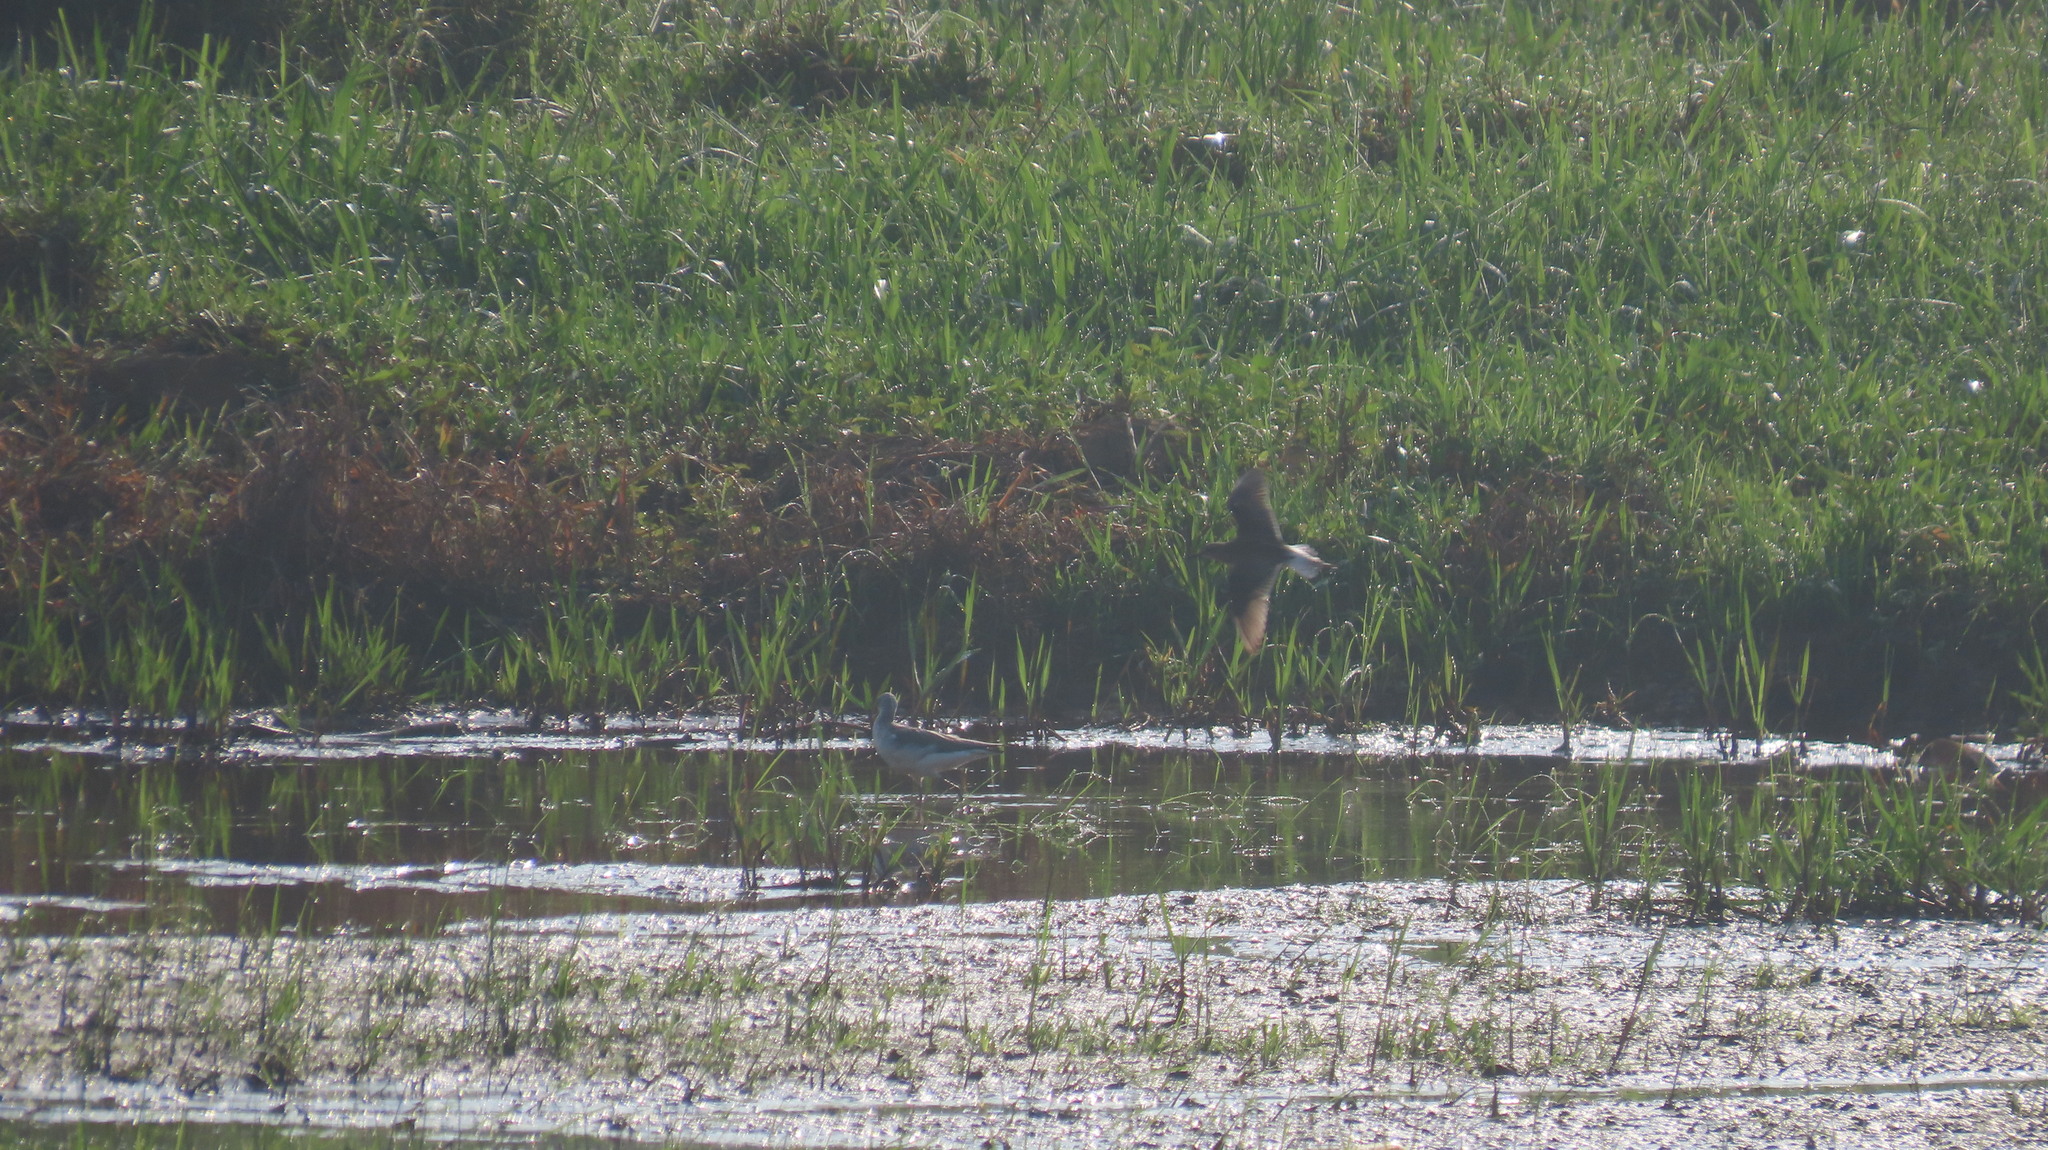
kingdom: Animalia
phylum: Chordata
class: Aves
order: Charadriiformes
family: Scolopacidae
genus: Tringa
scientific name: Tringa glareola
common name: Wood sandpiper
